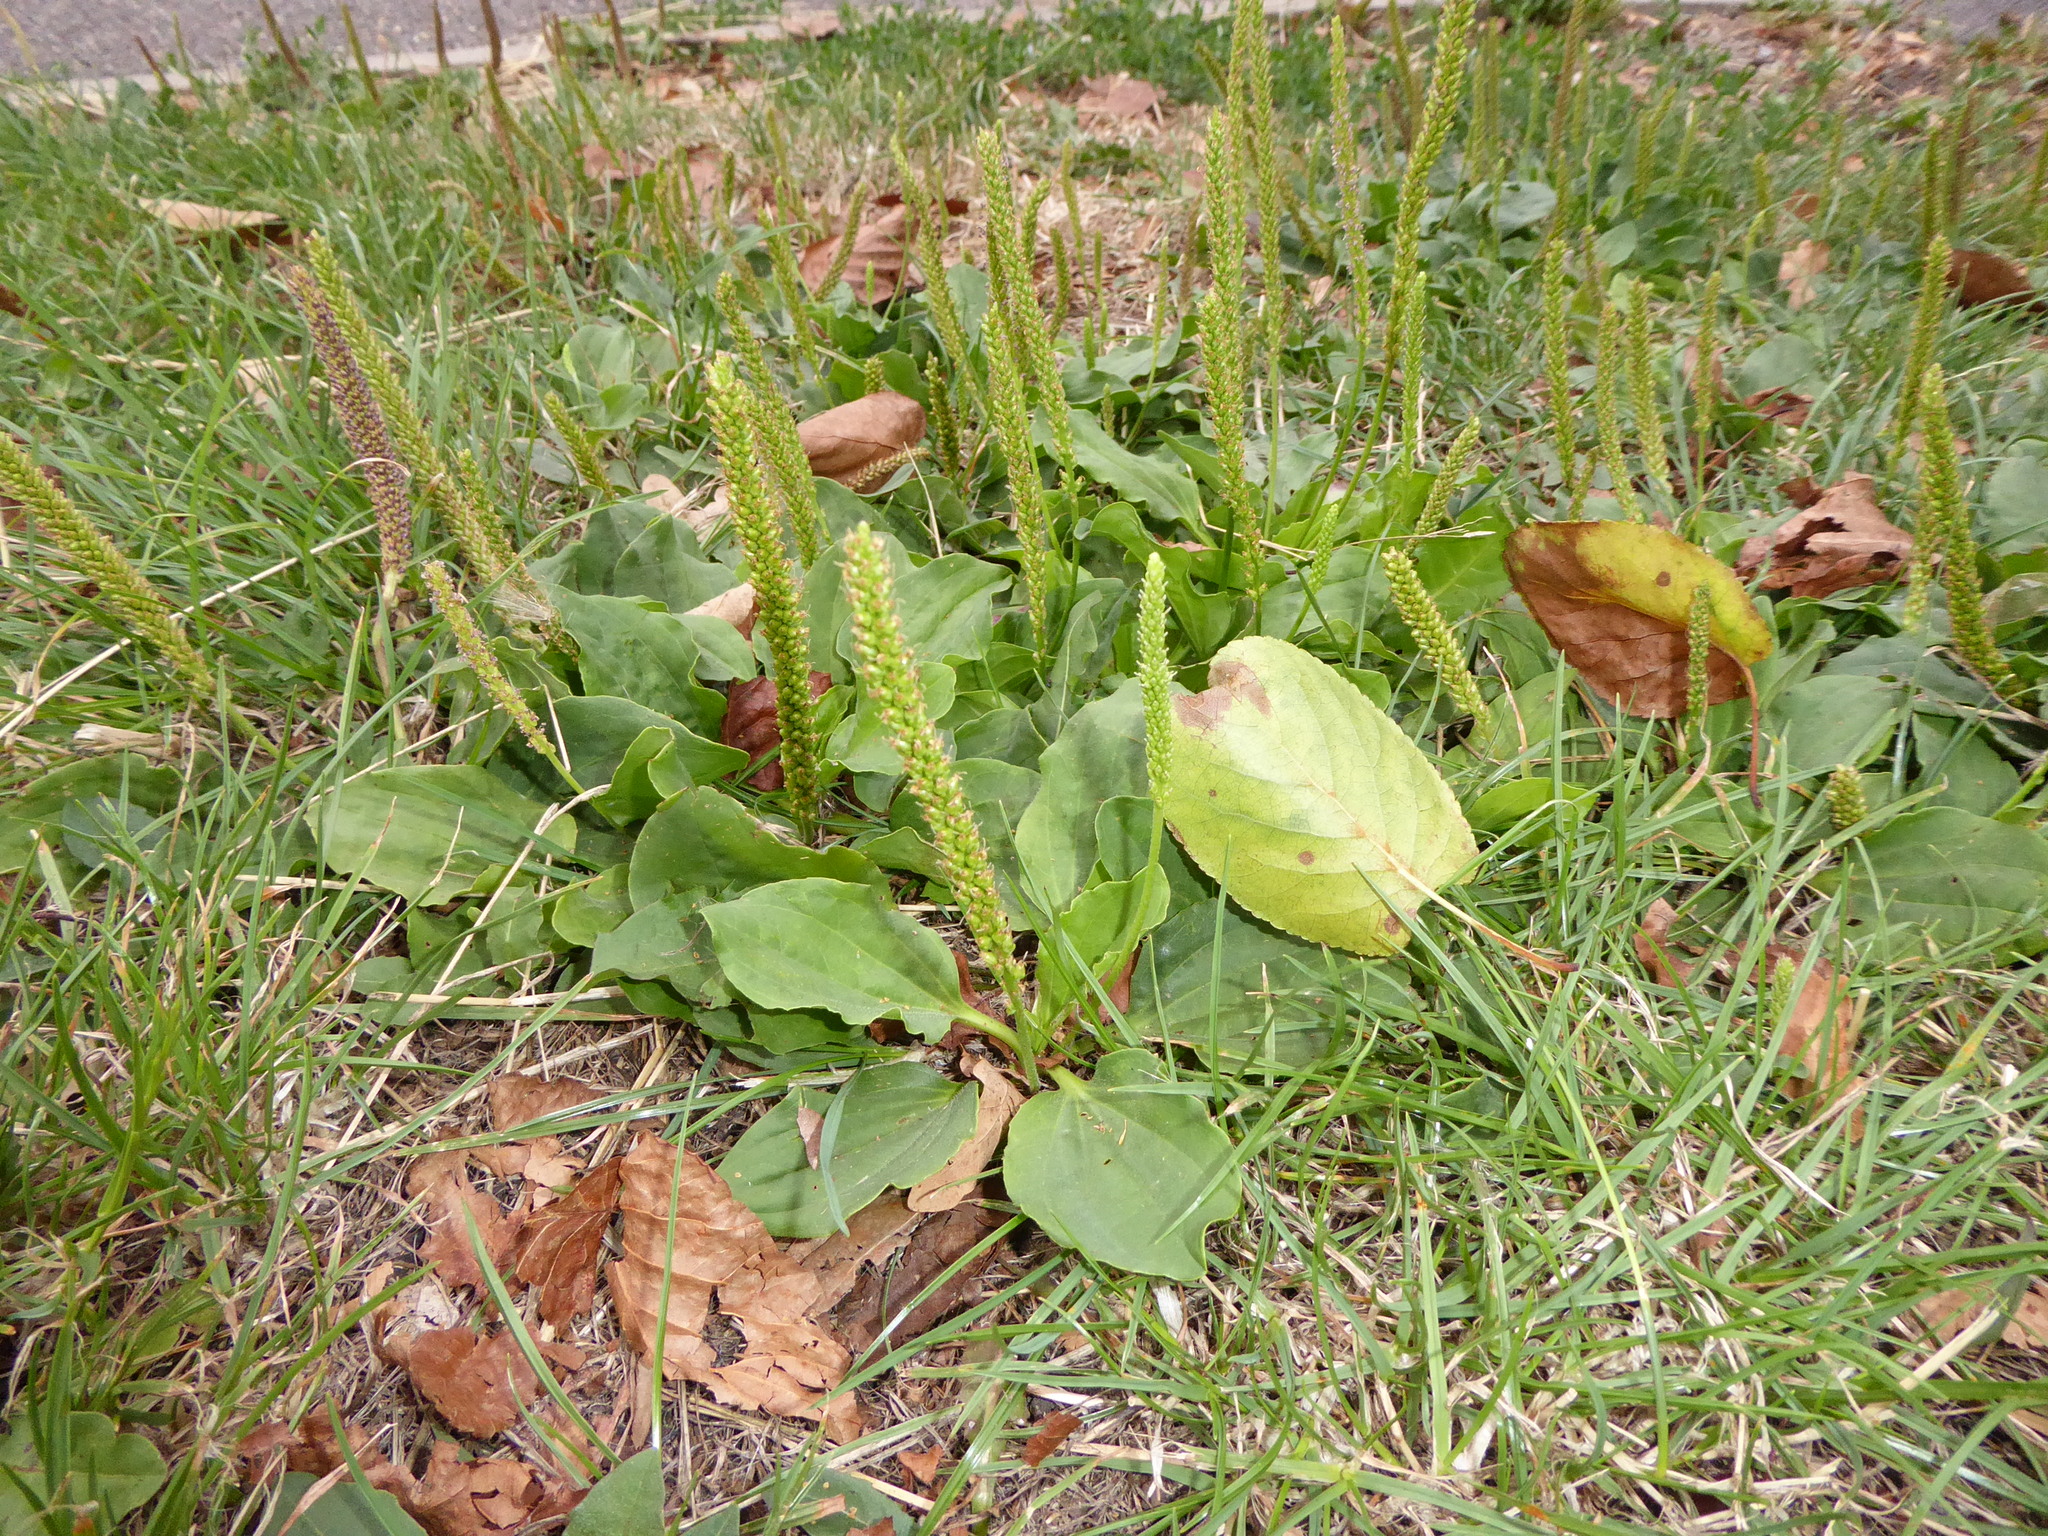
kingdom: Plantae
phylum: Tracheophyta
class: Magnoliopsida
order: Lamiales
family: Plantaginaceae
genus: Plantago
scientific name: Plantago major
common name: Common plantain
